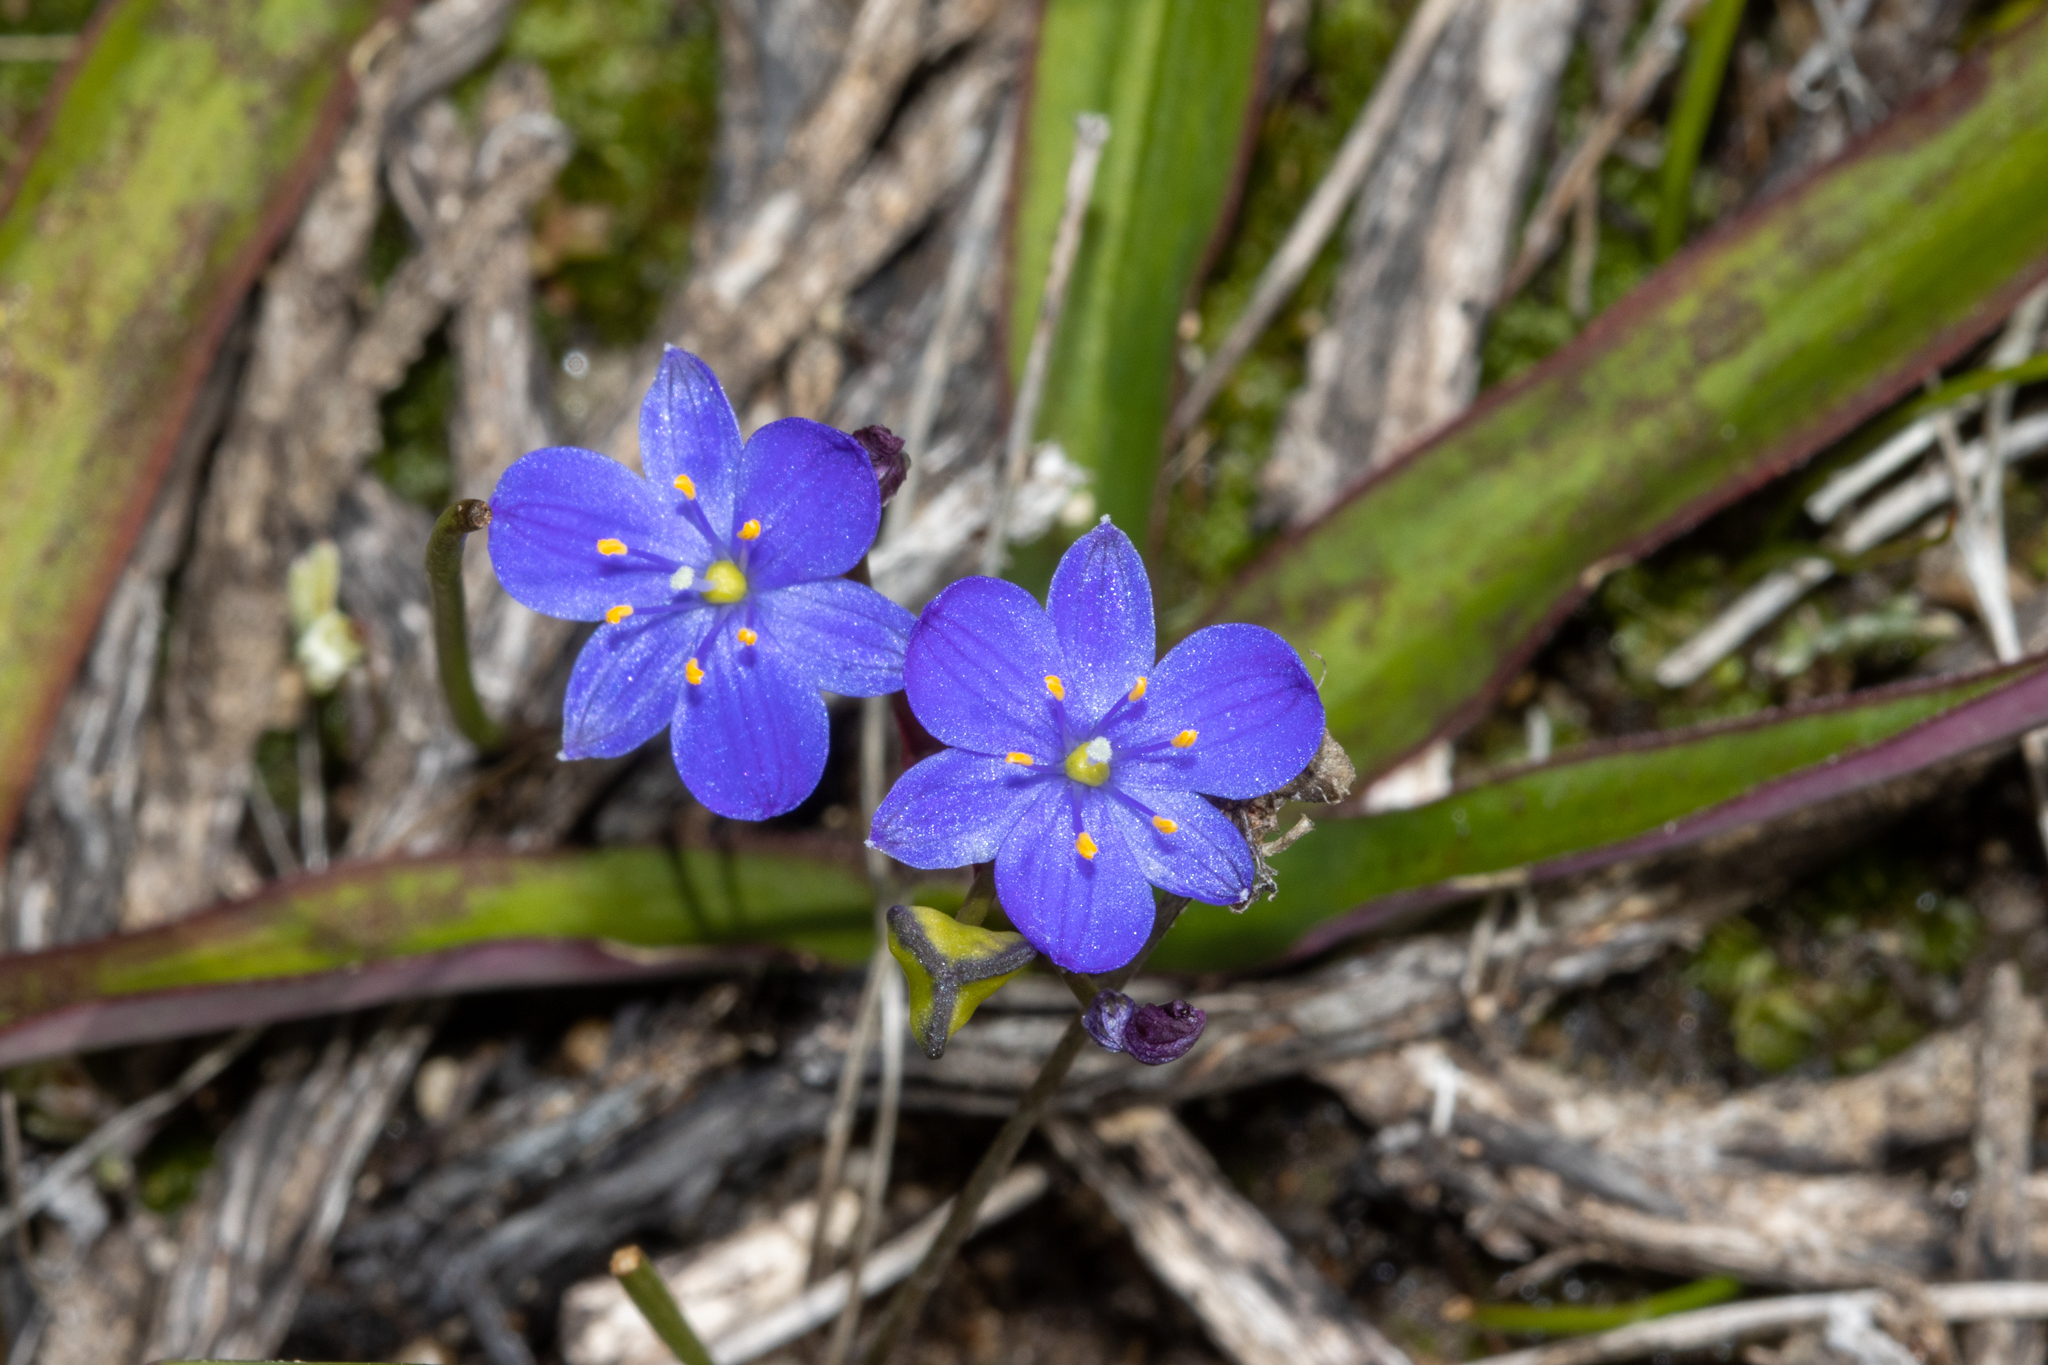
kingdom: Plantae
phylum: Tracheophyta
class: Liliopsida
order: Asparagales
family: Asphodelaceae
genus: Chamaescilla
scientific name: Chamaescilla corymbosa
